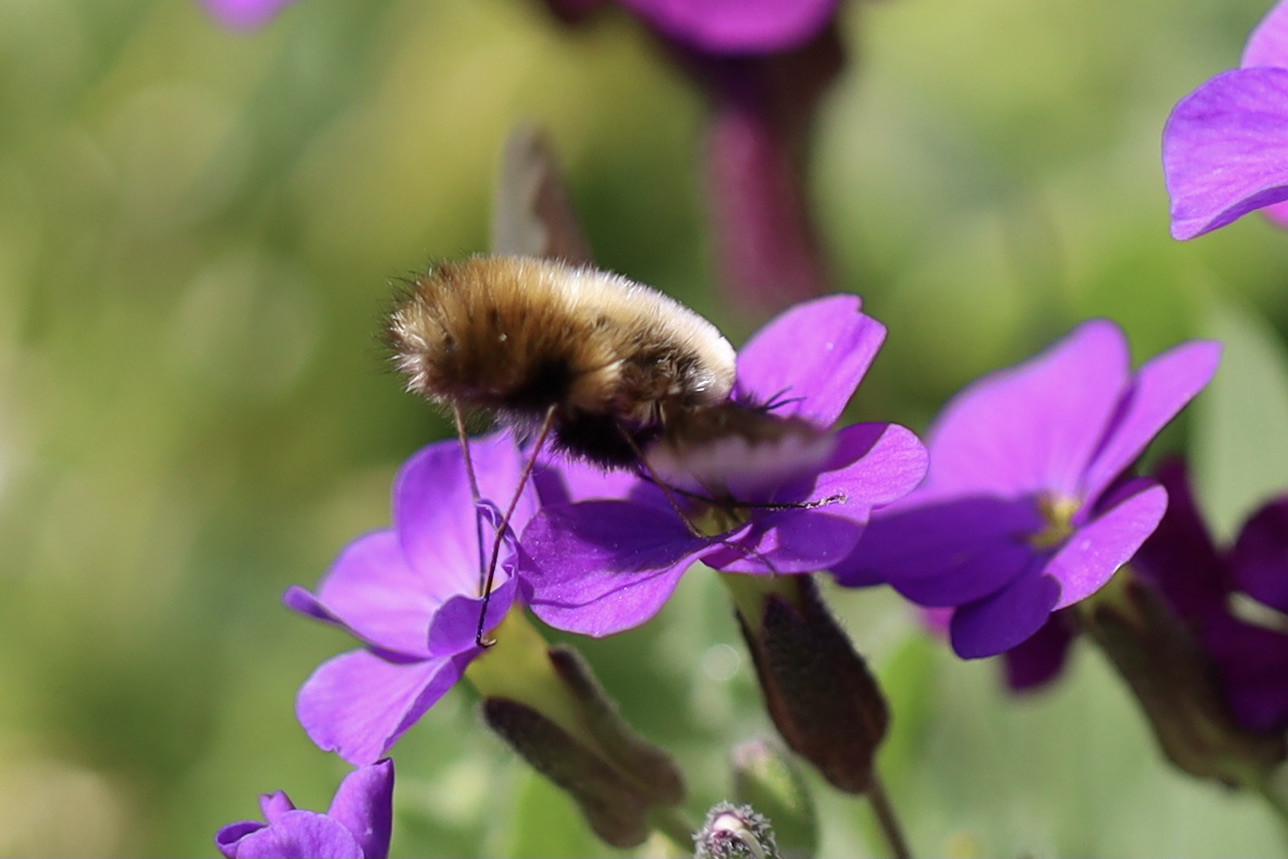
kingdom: Animalia
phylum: Arthropoda
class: Insecta
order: Diptera
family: Bombyliidae
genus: Bombylius
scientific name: Bombylius major
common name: Bee fly
